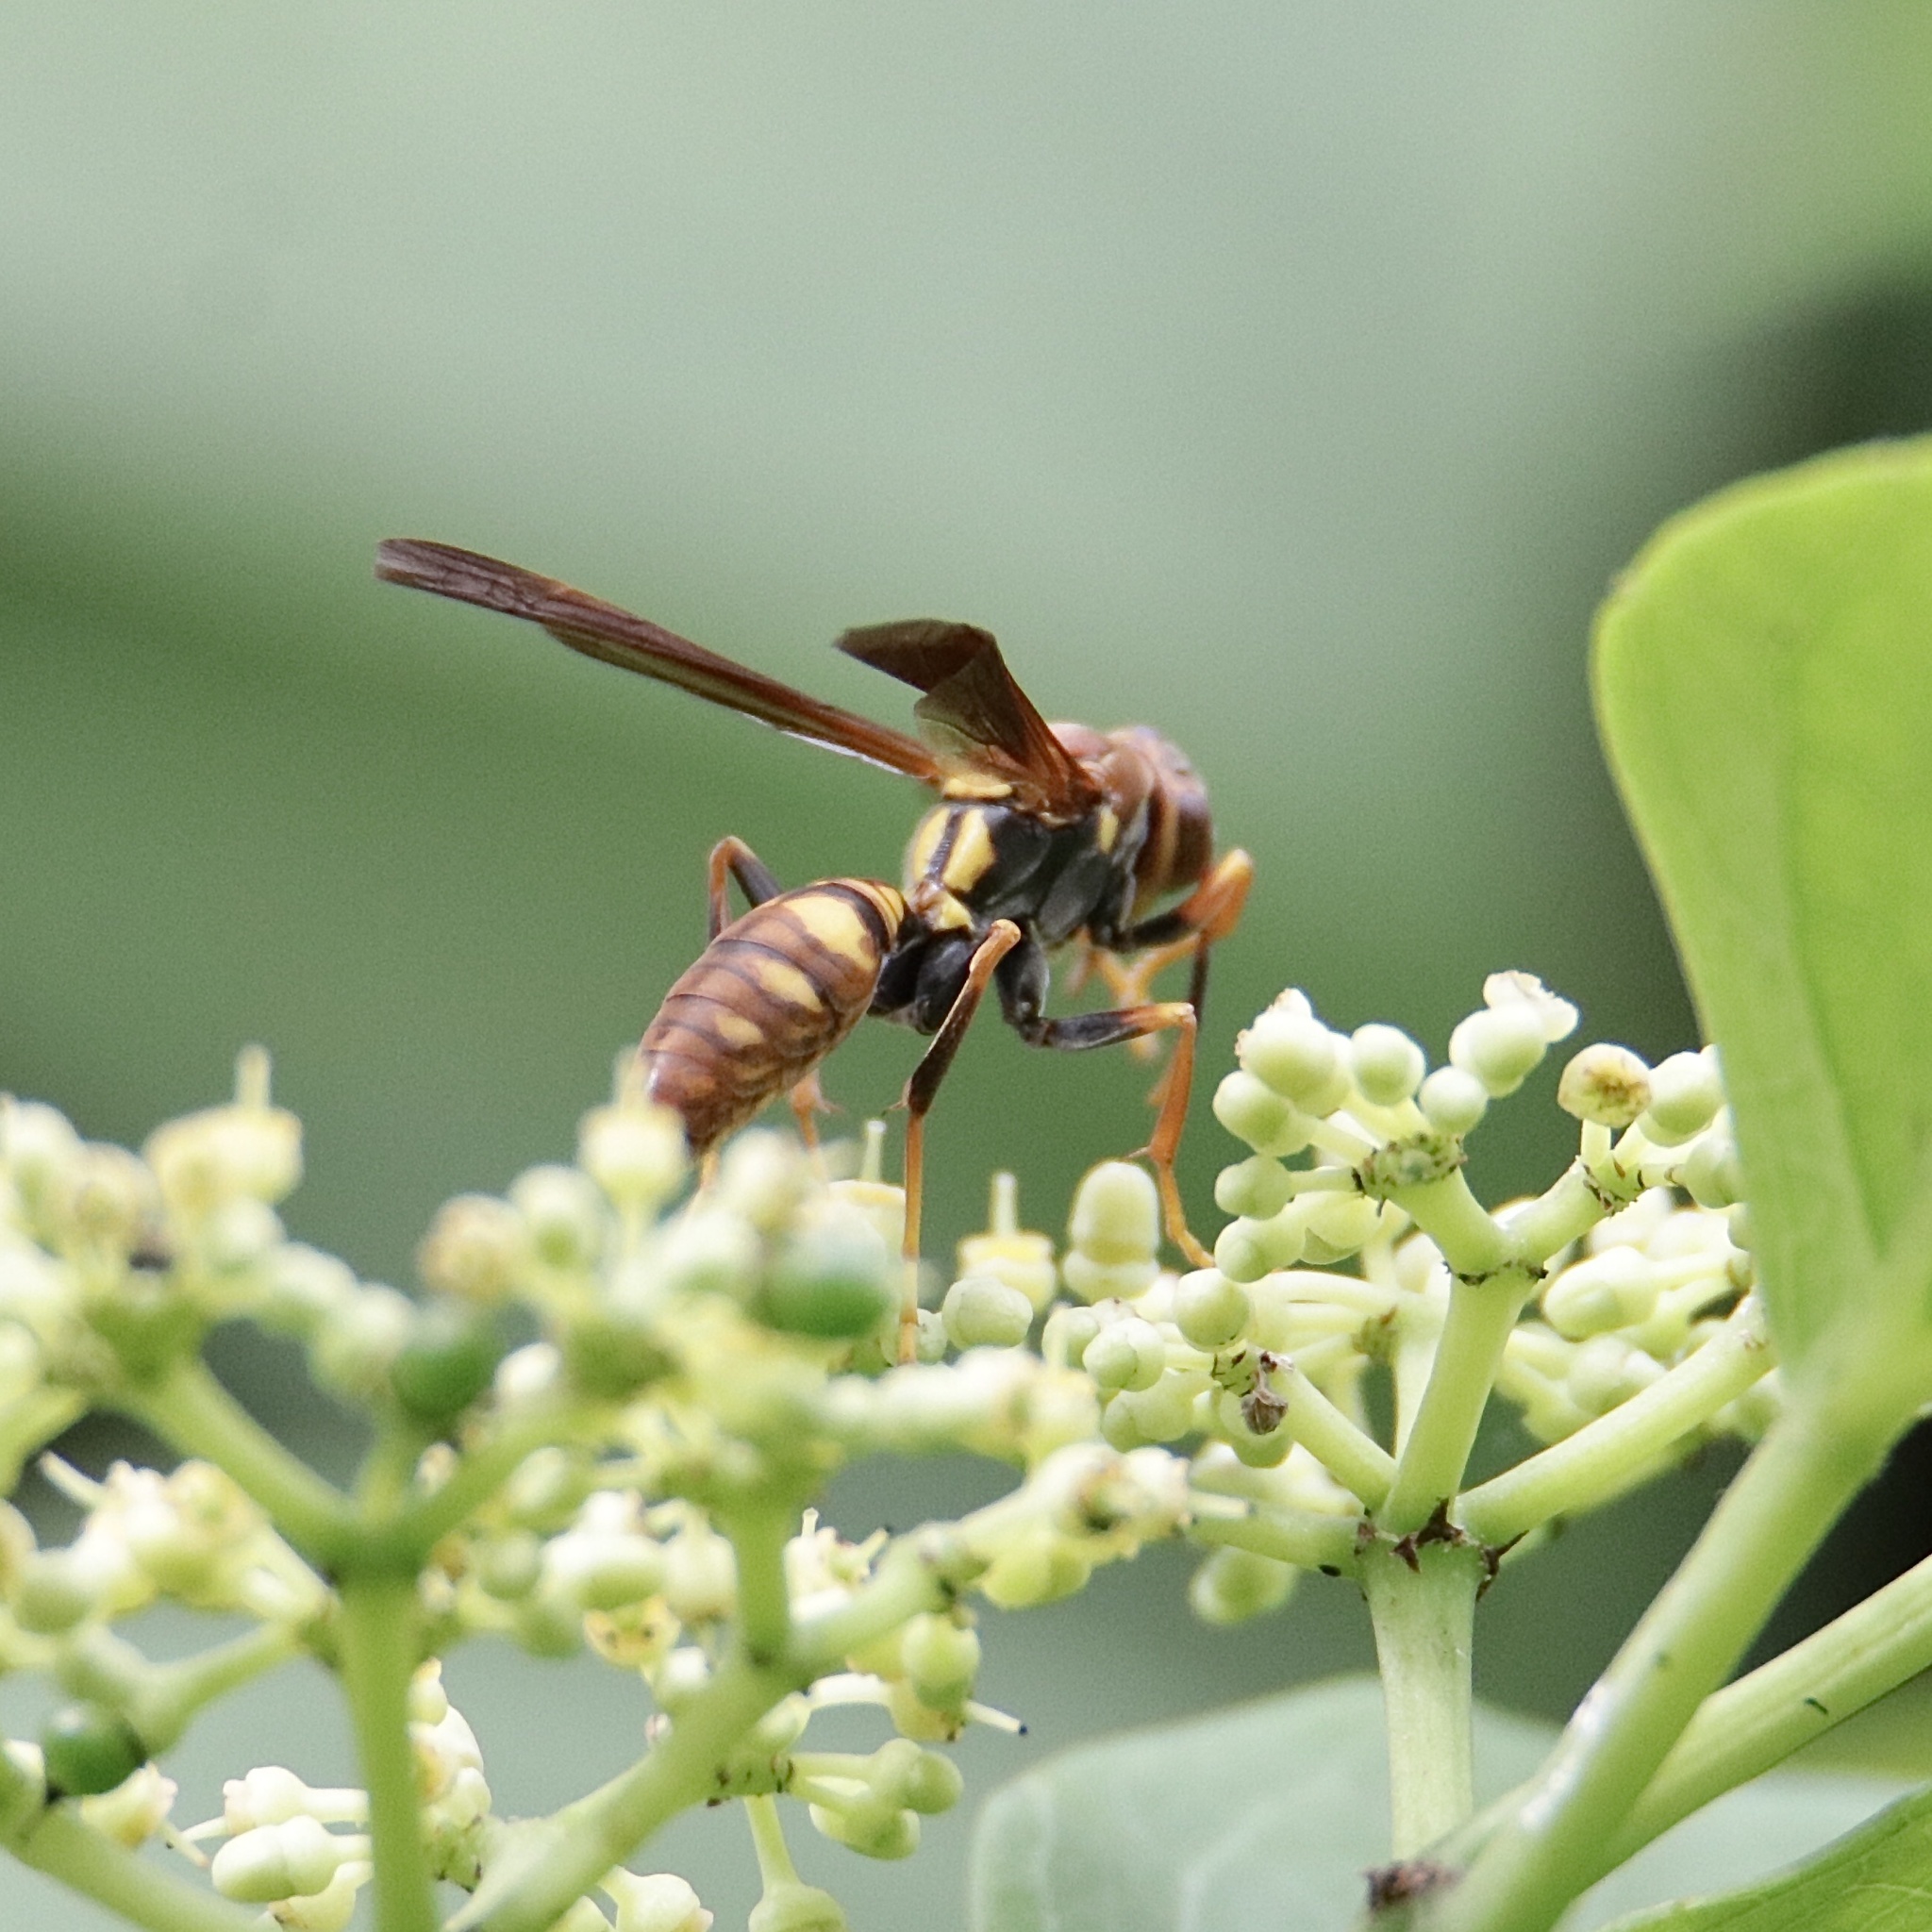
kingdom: Animalia
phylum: Arthropoda
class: Insecta
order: Hymenoptera
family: Eumenidae
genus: Polistes
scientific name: Polistes versicolor
